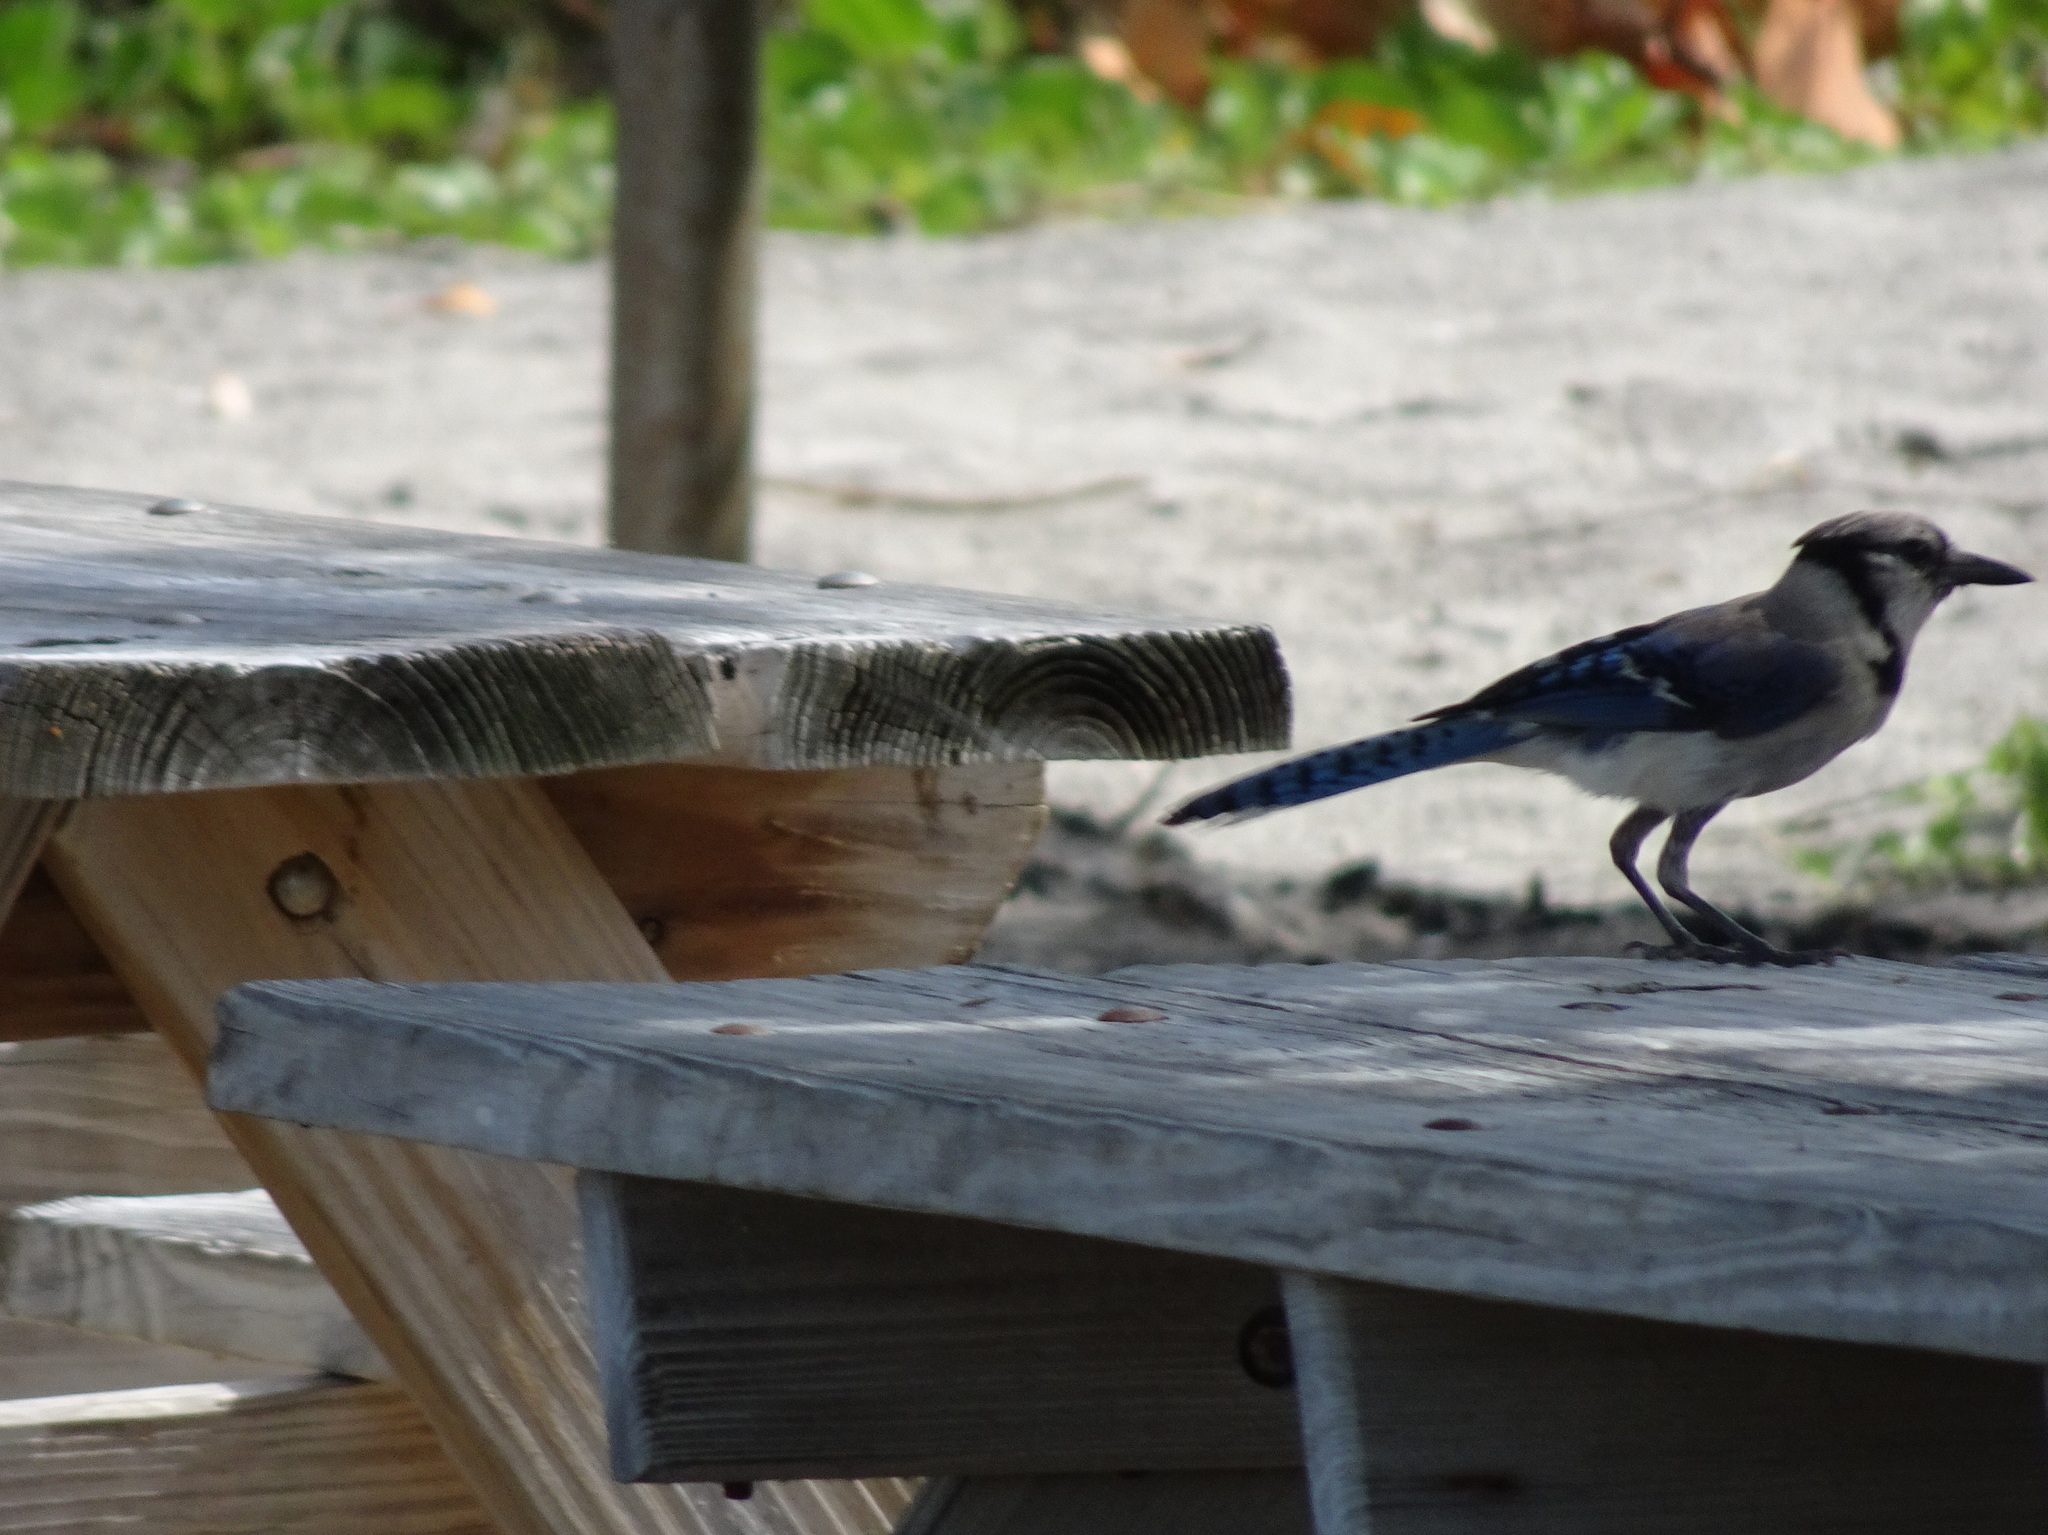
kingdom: Animalia
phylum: Chordata
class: Aves
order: Passeriformes
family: Corvidae
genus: Cyanocitta
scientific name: Cyanocitta cristata
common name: Blue jay
